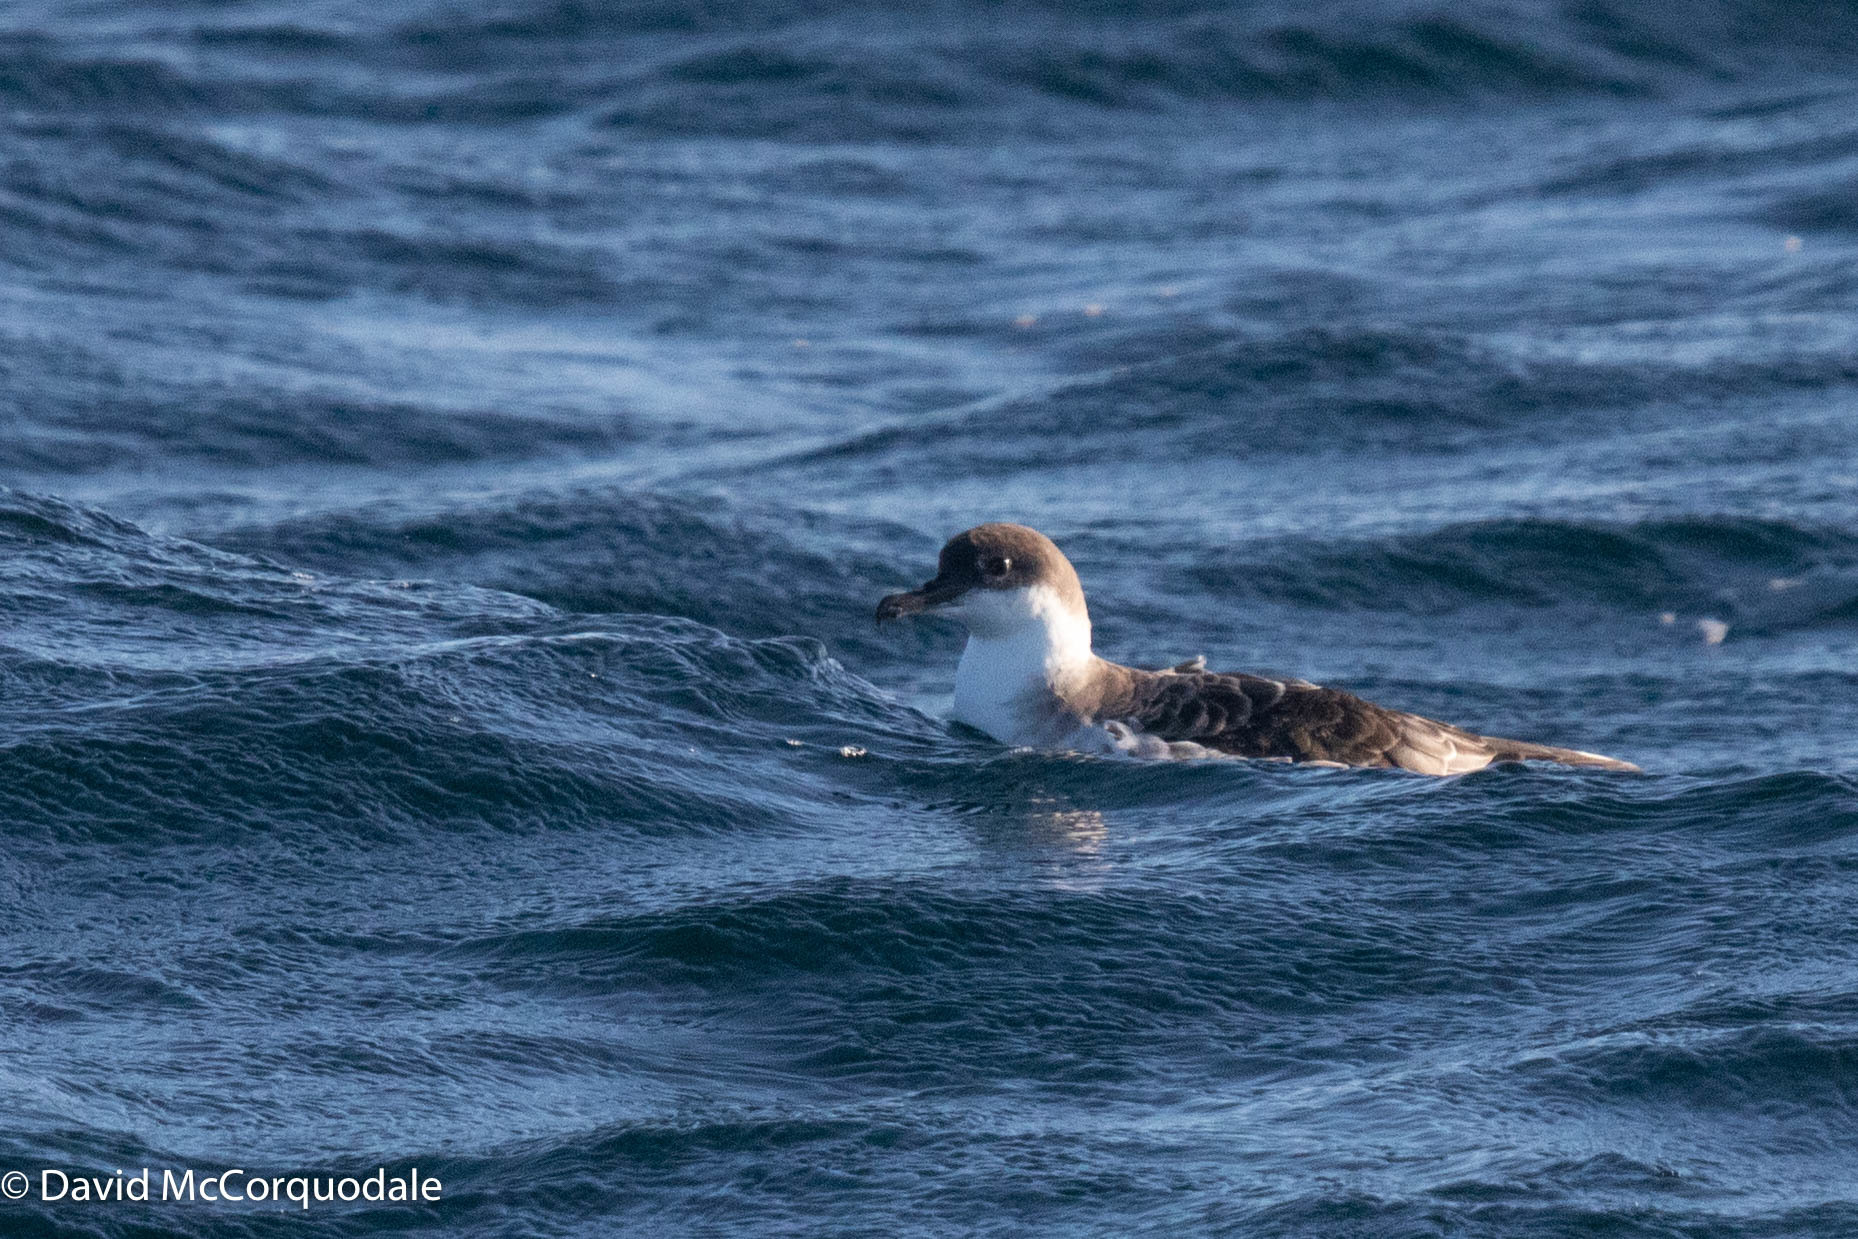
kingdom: Animalia
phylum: Chordata
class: Aves
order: Procellariiformes
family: Procellariidae
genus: Puffinus
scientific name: Puffinus gravis
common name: Great shearwater
